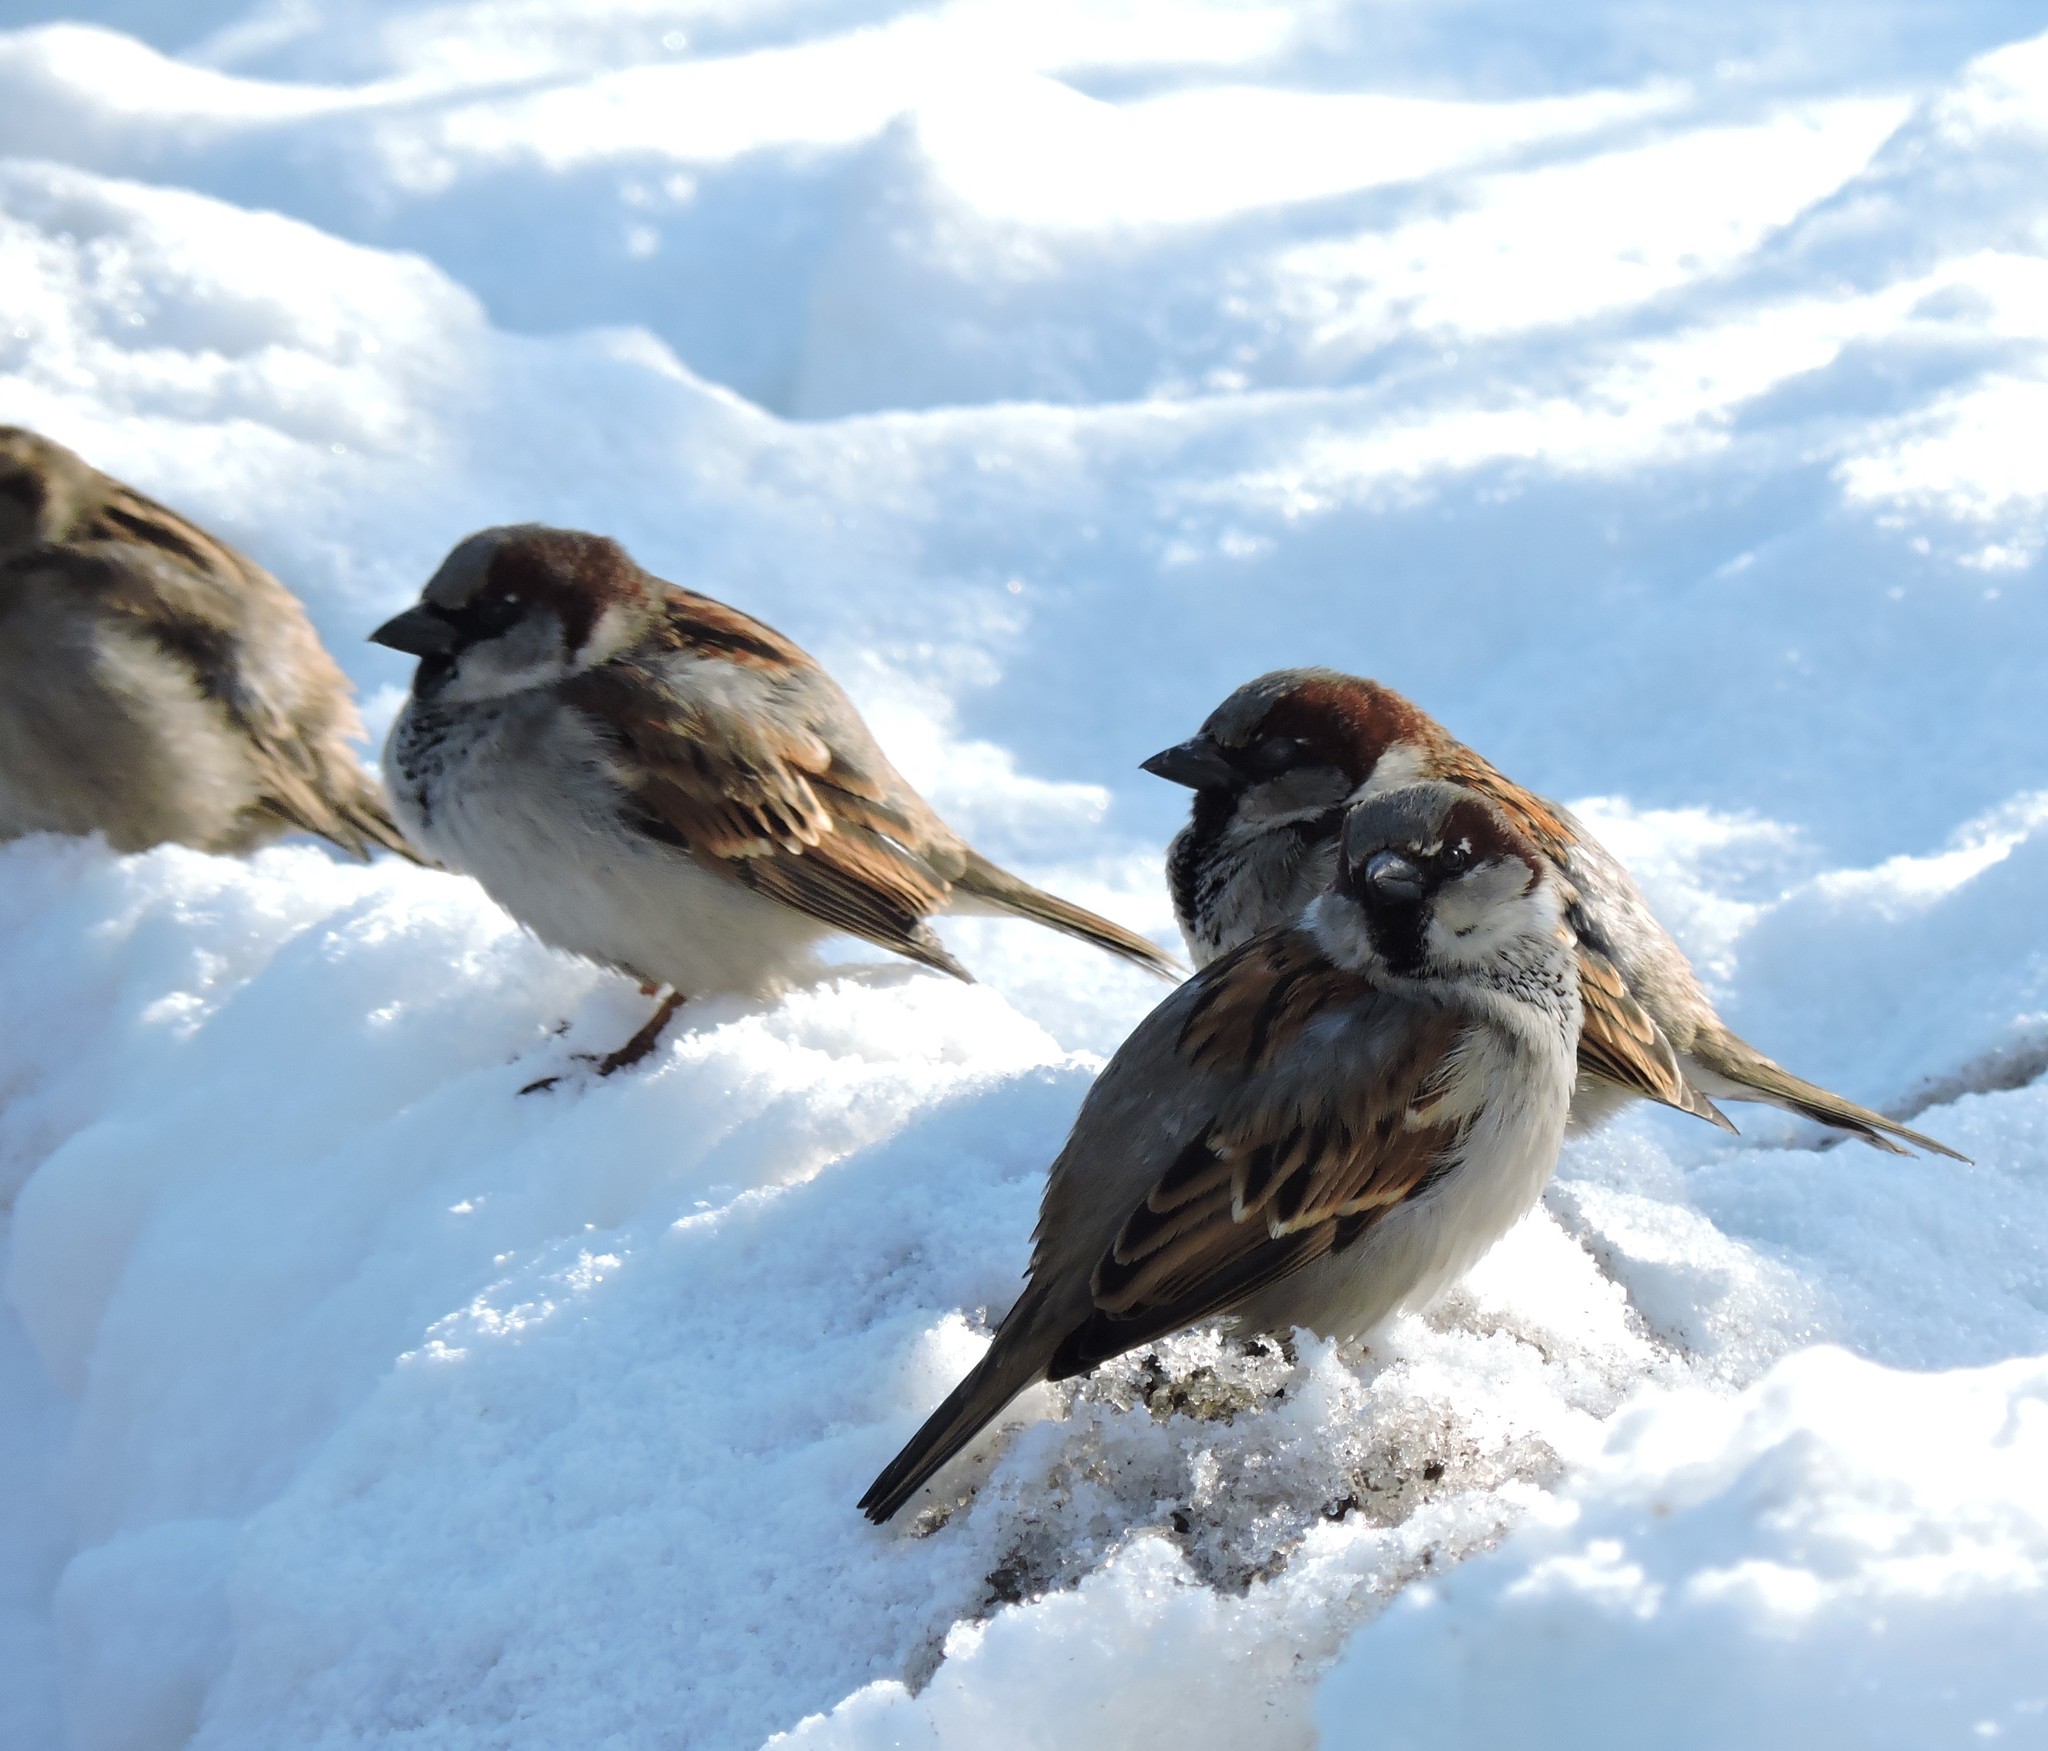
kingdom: Animalia
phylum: Chordata
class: Aves
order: Passeriformes
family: Passeridae
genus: Passer
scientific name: Passer domesticus
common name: House sparrow
